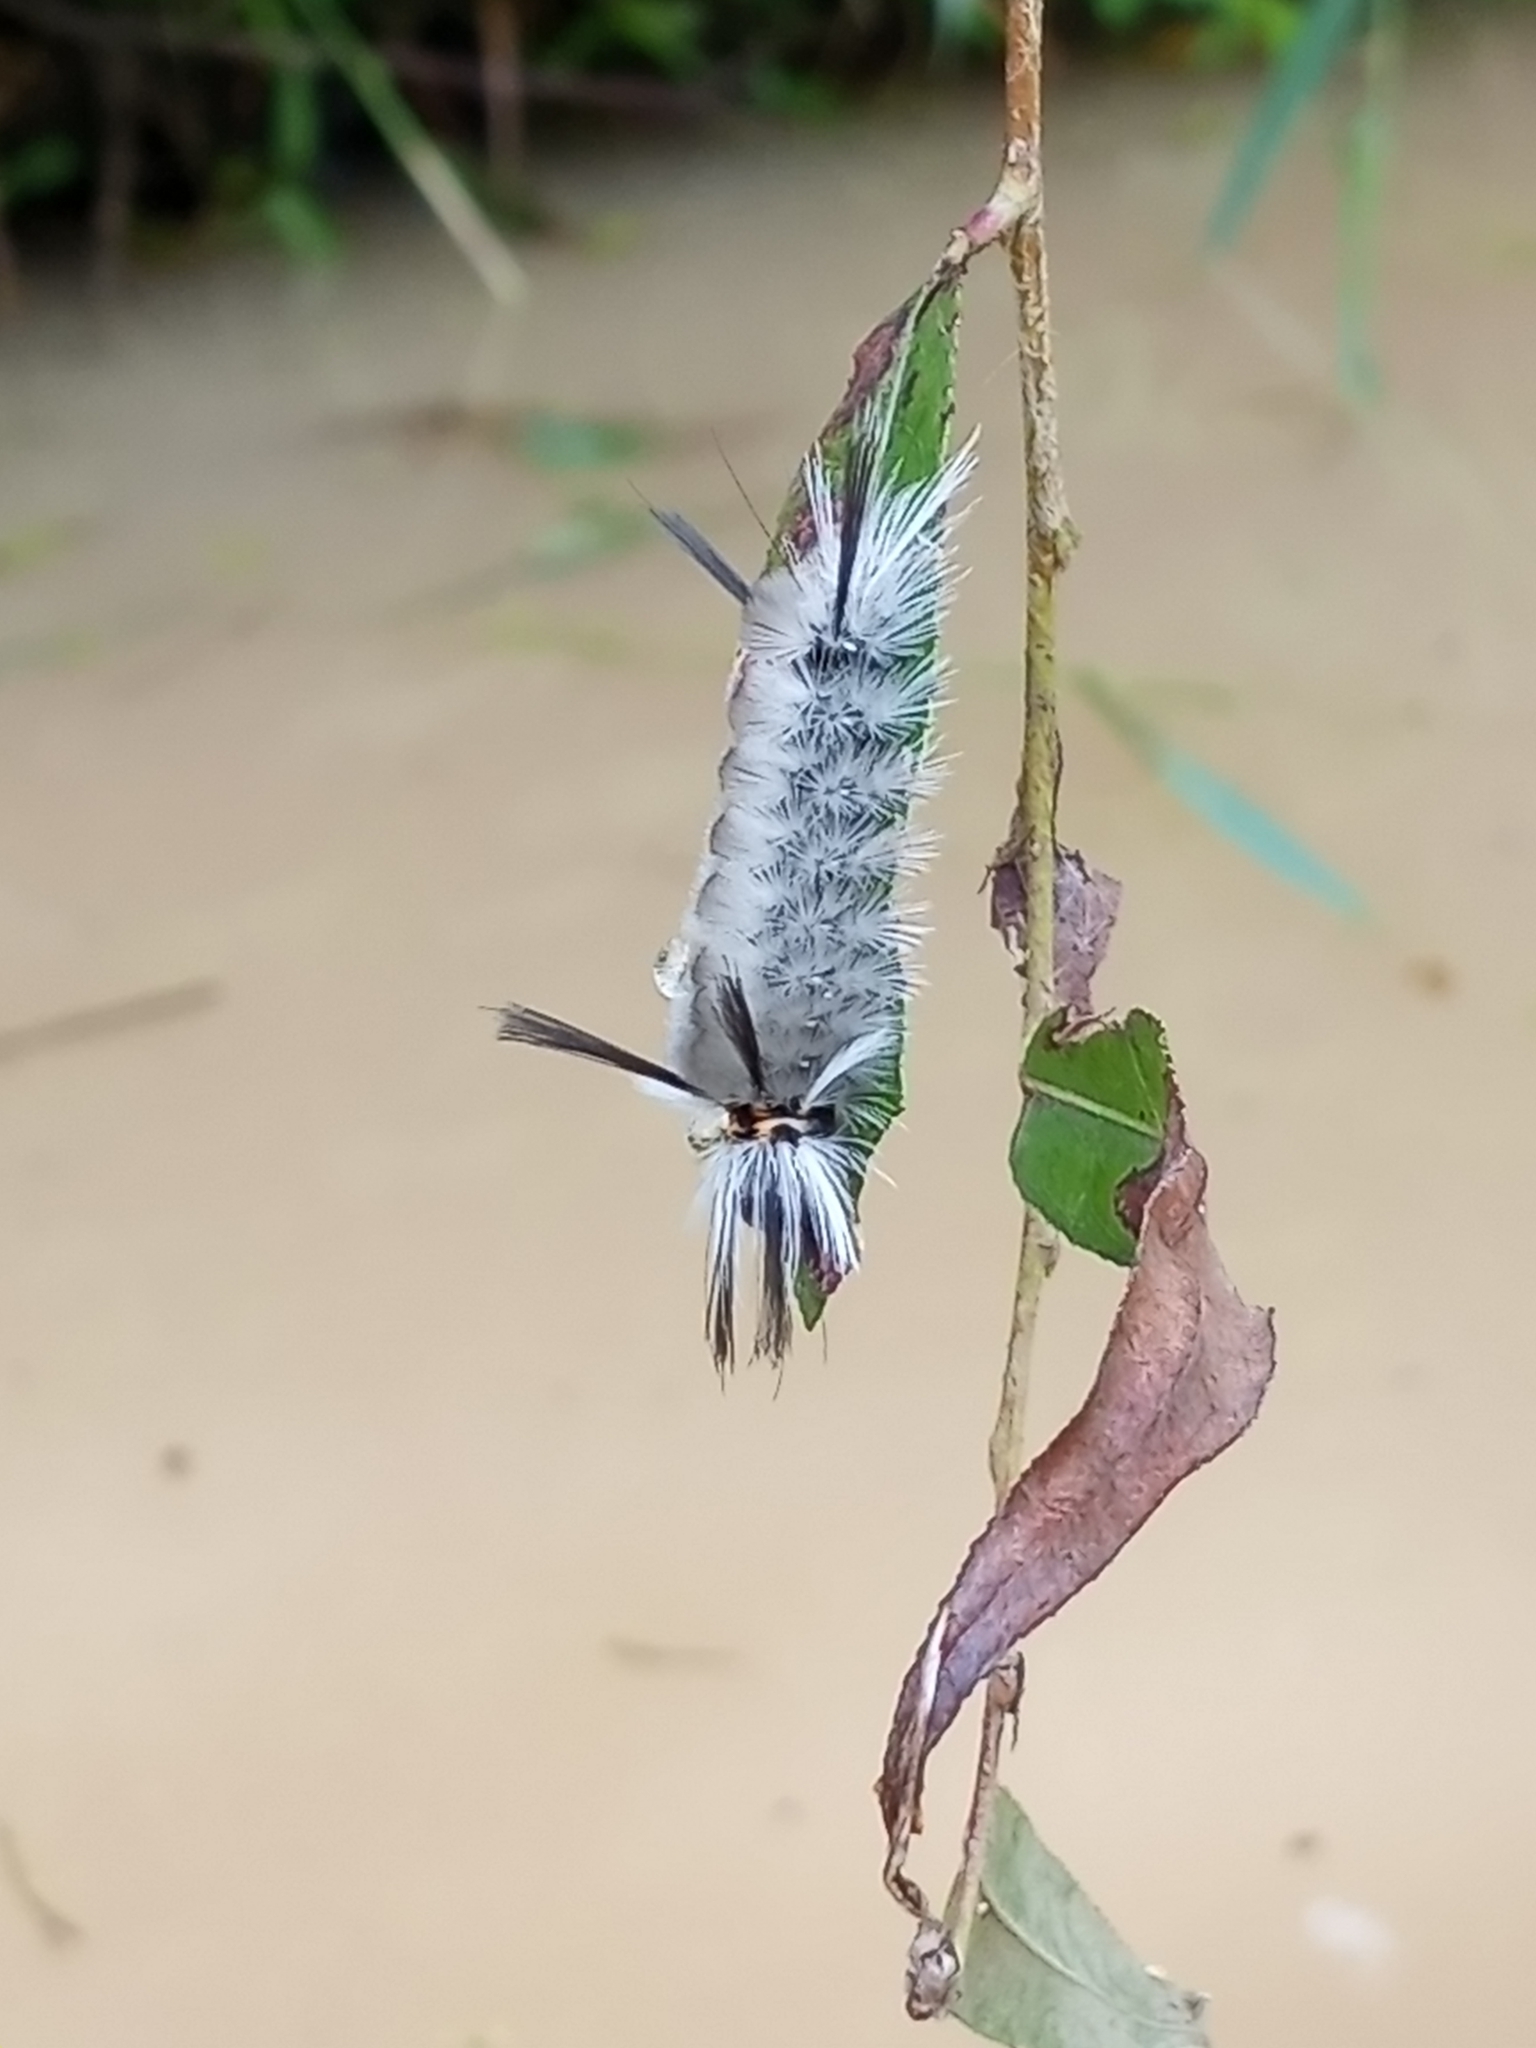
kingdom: Animalia
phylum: Arthropoda
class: Insecta
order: Lepidoptera
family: Erebidae
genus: Halysidota
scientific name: Halysidota tessellaris
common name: Banded tussock moth
